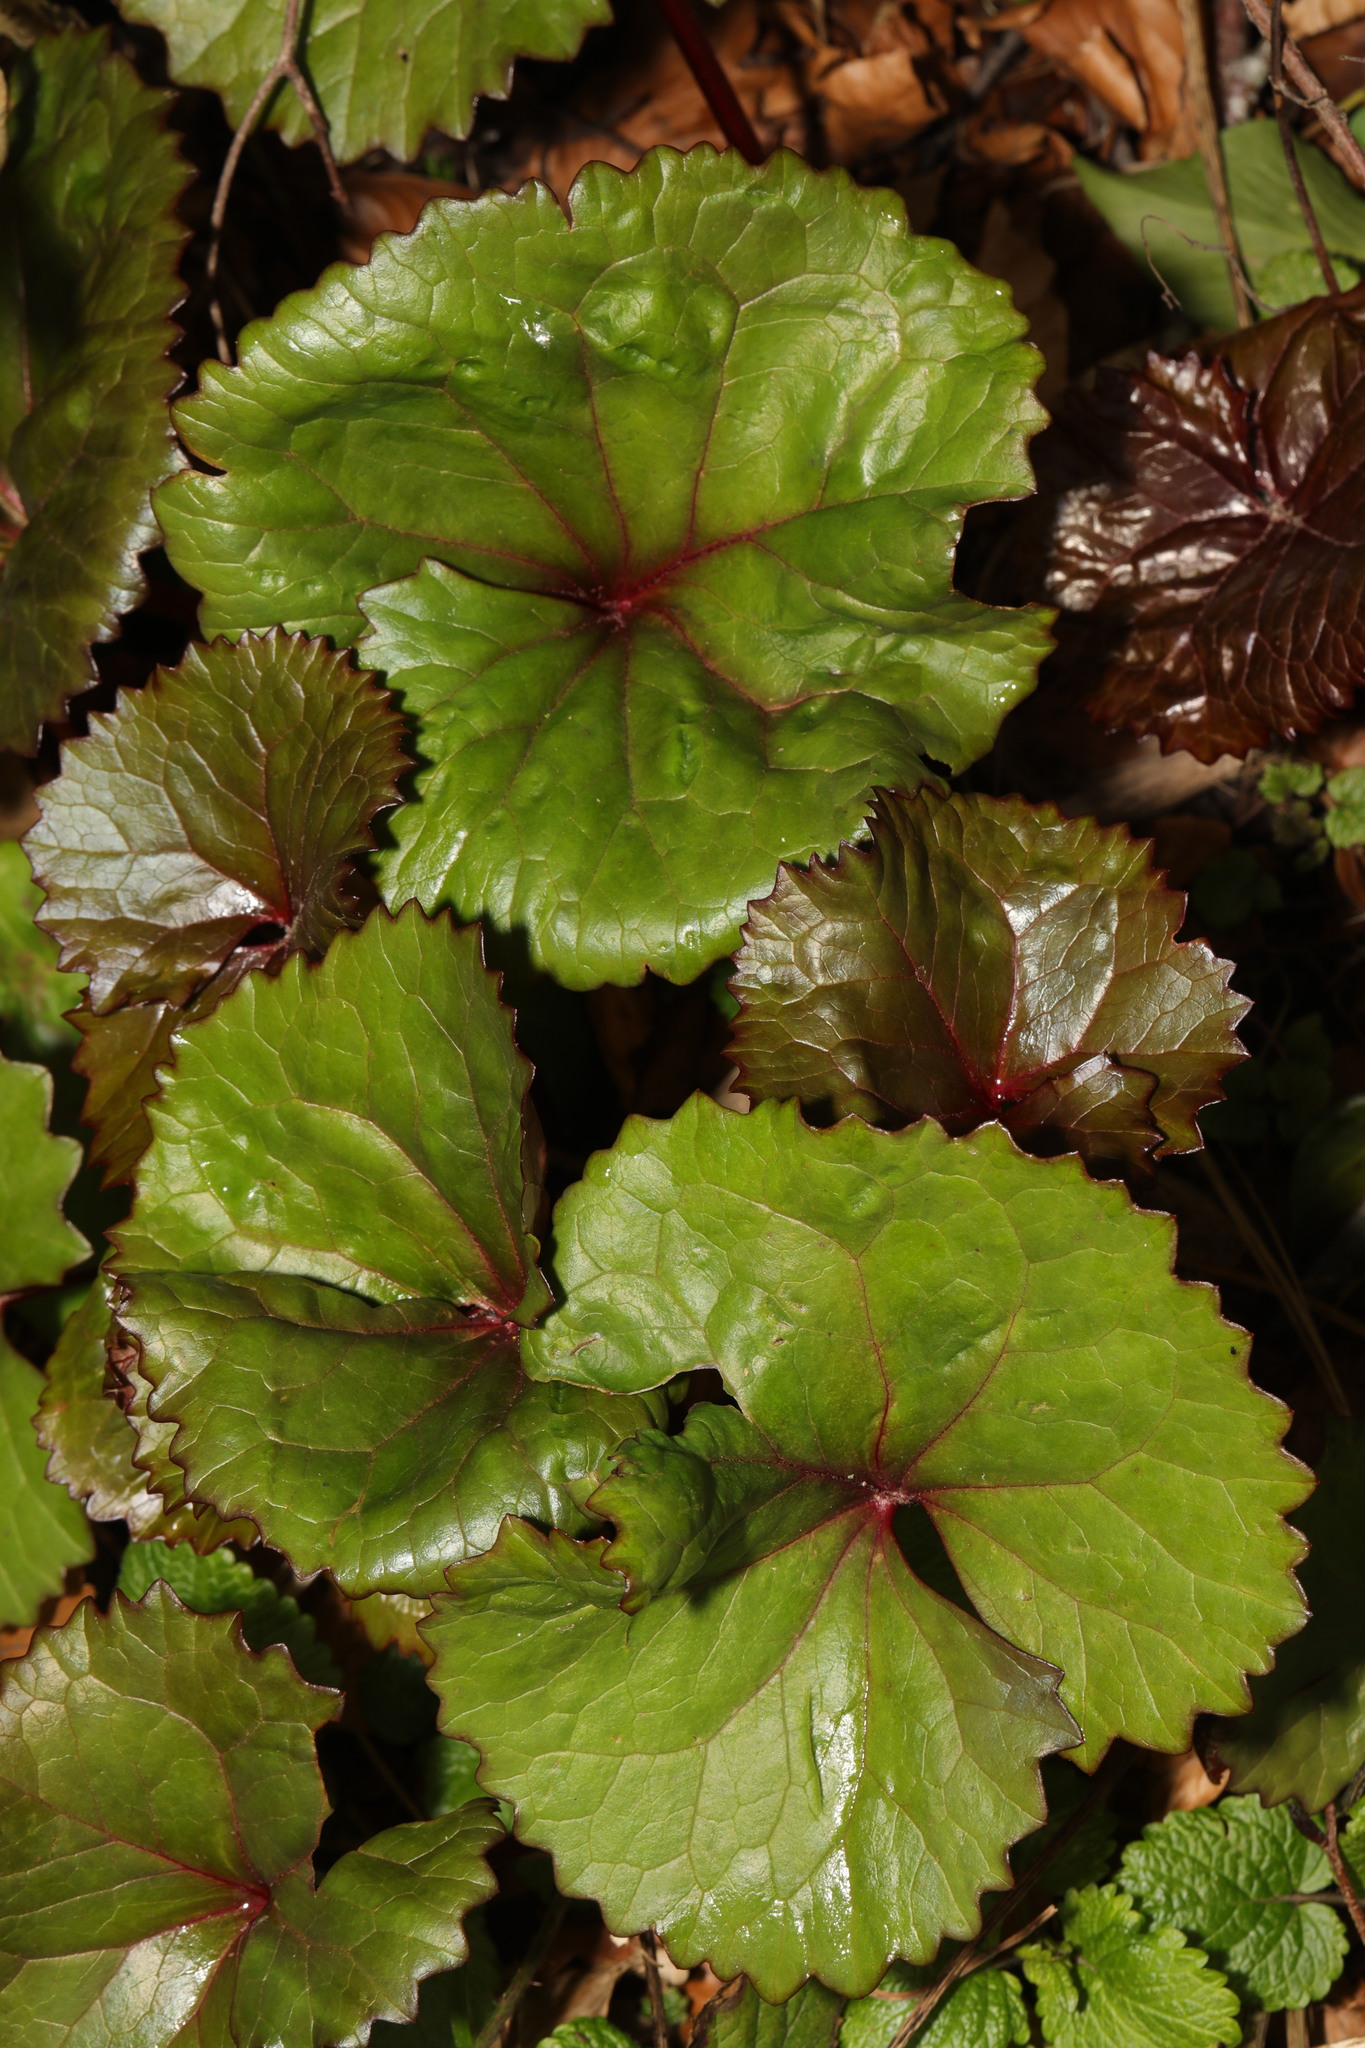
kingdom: Plantae
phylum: Tracheophyta
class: Magnoliopsida
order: Saxifragales
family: Saxifragaceae
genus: Bergenia
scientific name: Bergenia crassifolia
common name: Elephant-ears
